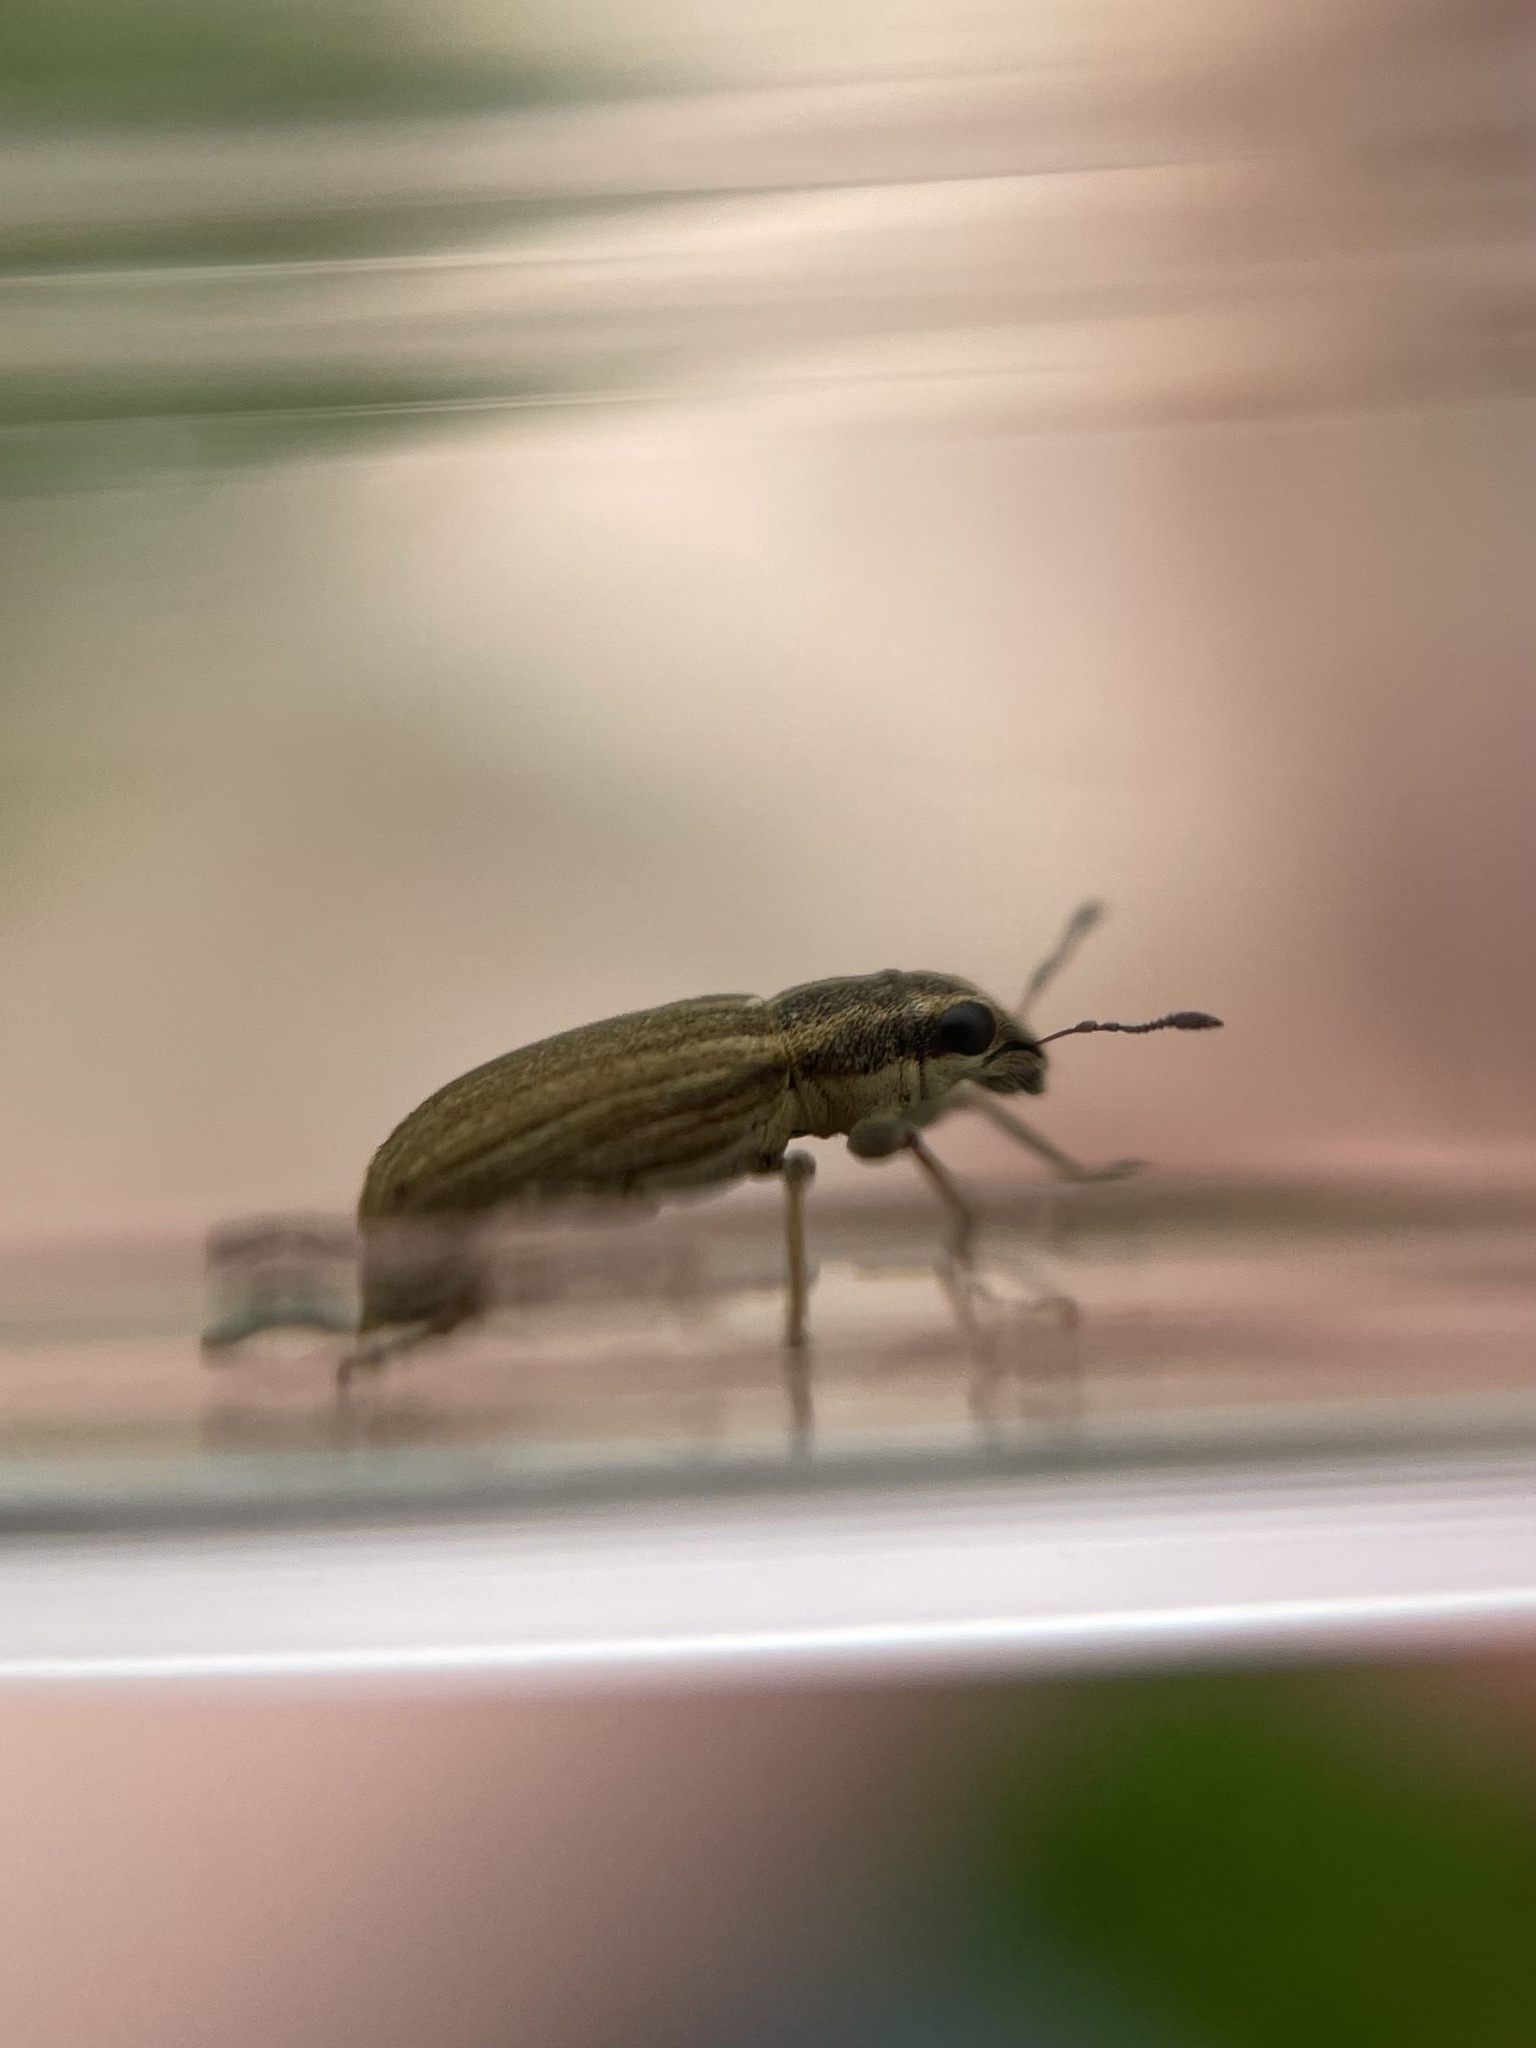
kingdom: Animalia
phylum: Arthropoda
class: Insecta
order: Coleoptera
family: Curculionidae
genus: Sitona
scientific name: Sitona lineatus
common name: Weevil
